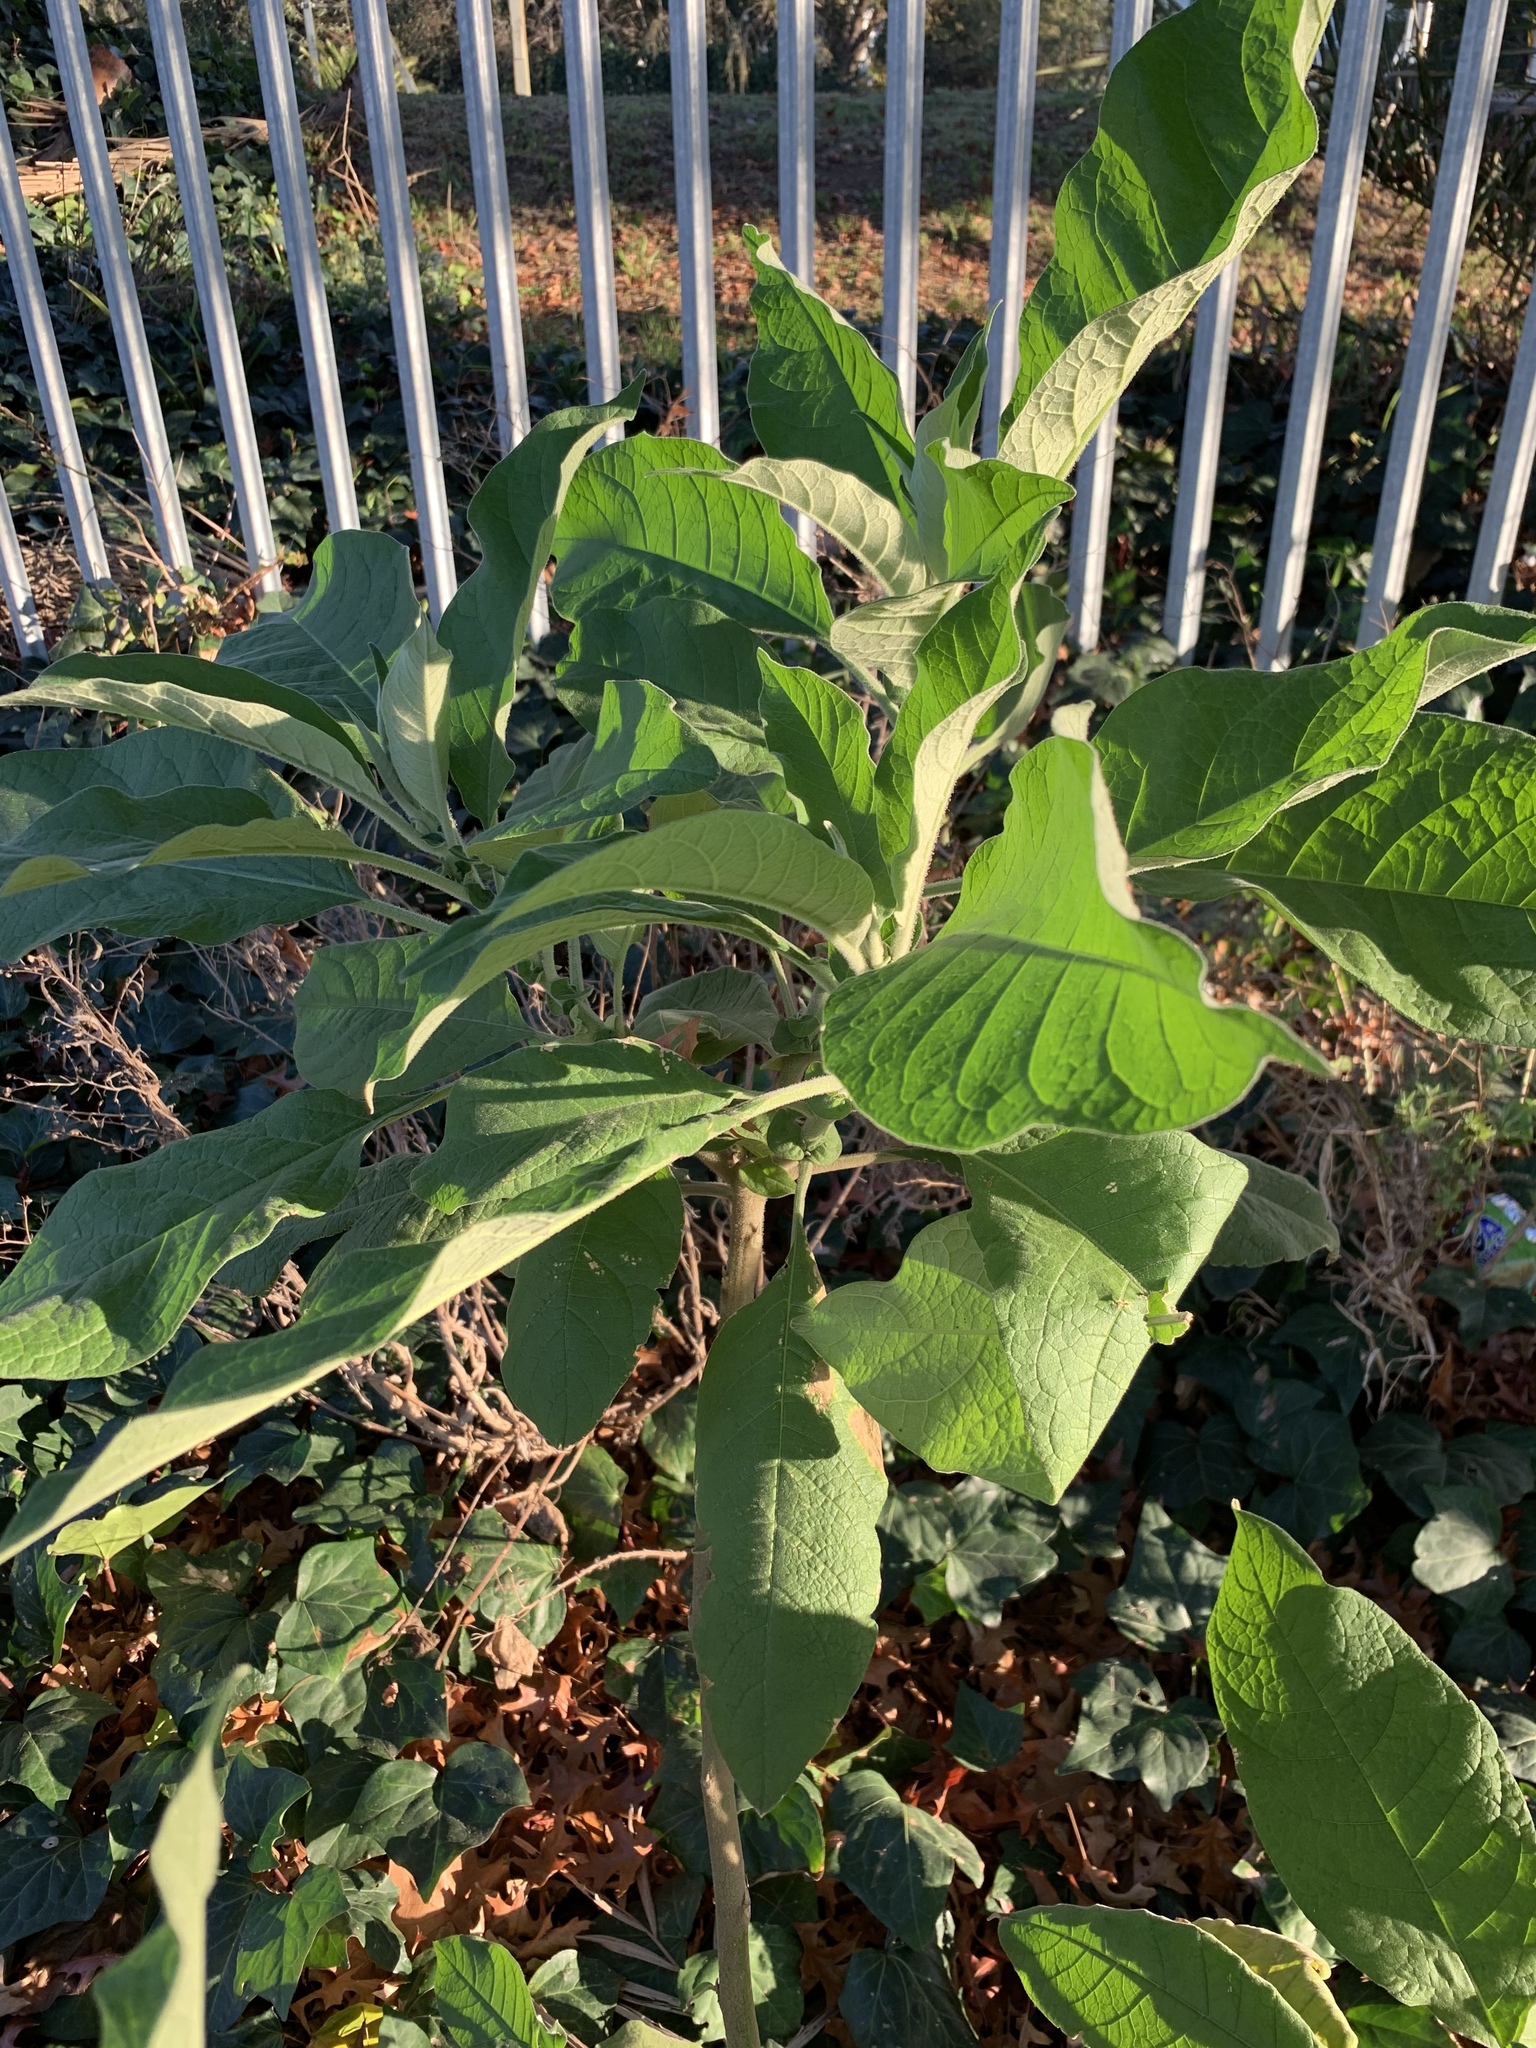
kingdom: Plantae
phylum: Tracheophyta
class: Magnoliopsida
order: Solanales
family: Solanaceae
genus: Solanum
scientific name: Solanum mauritianum
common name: Earleaf nightshade
